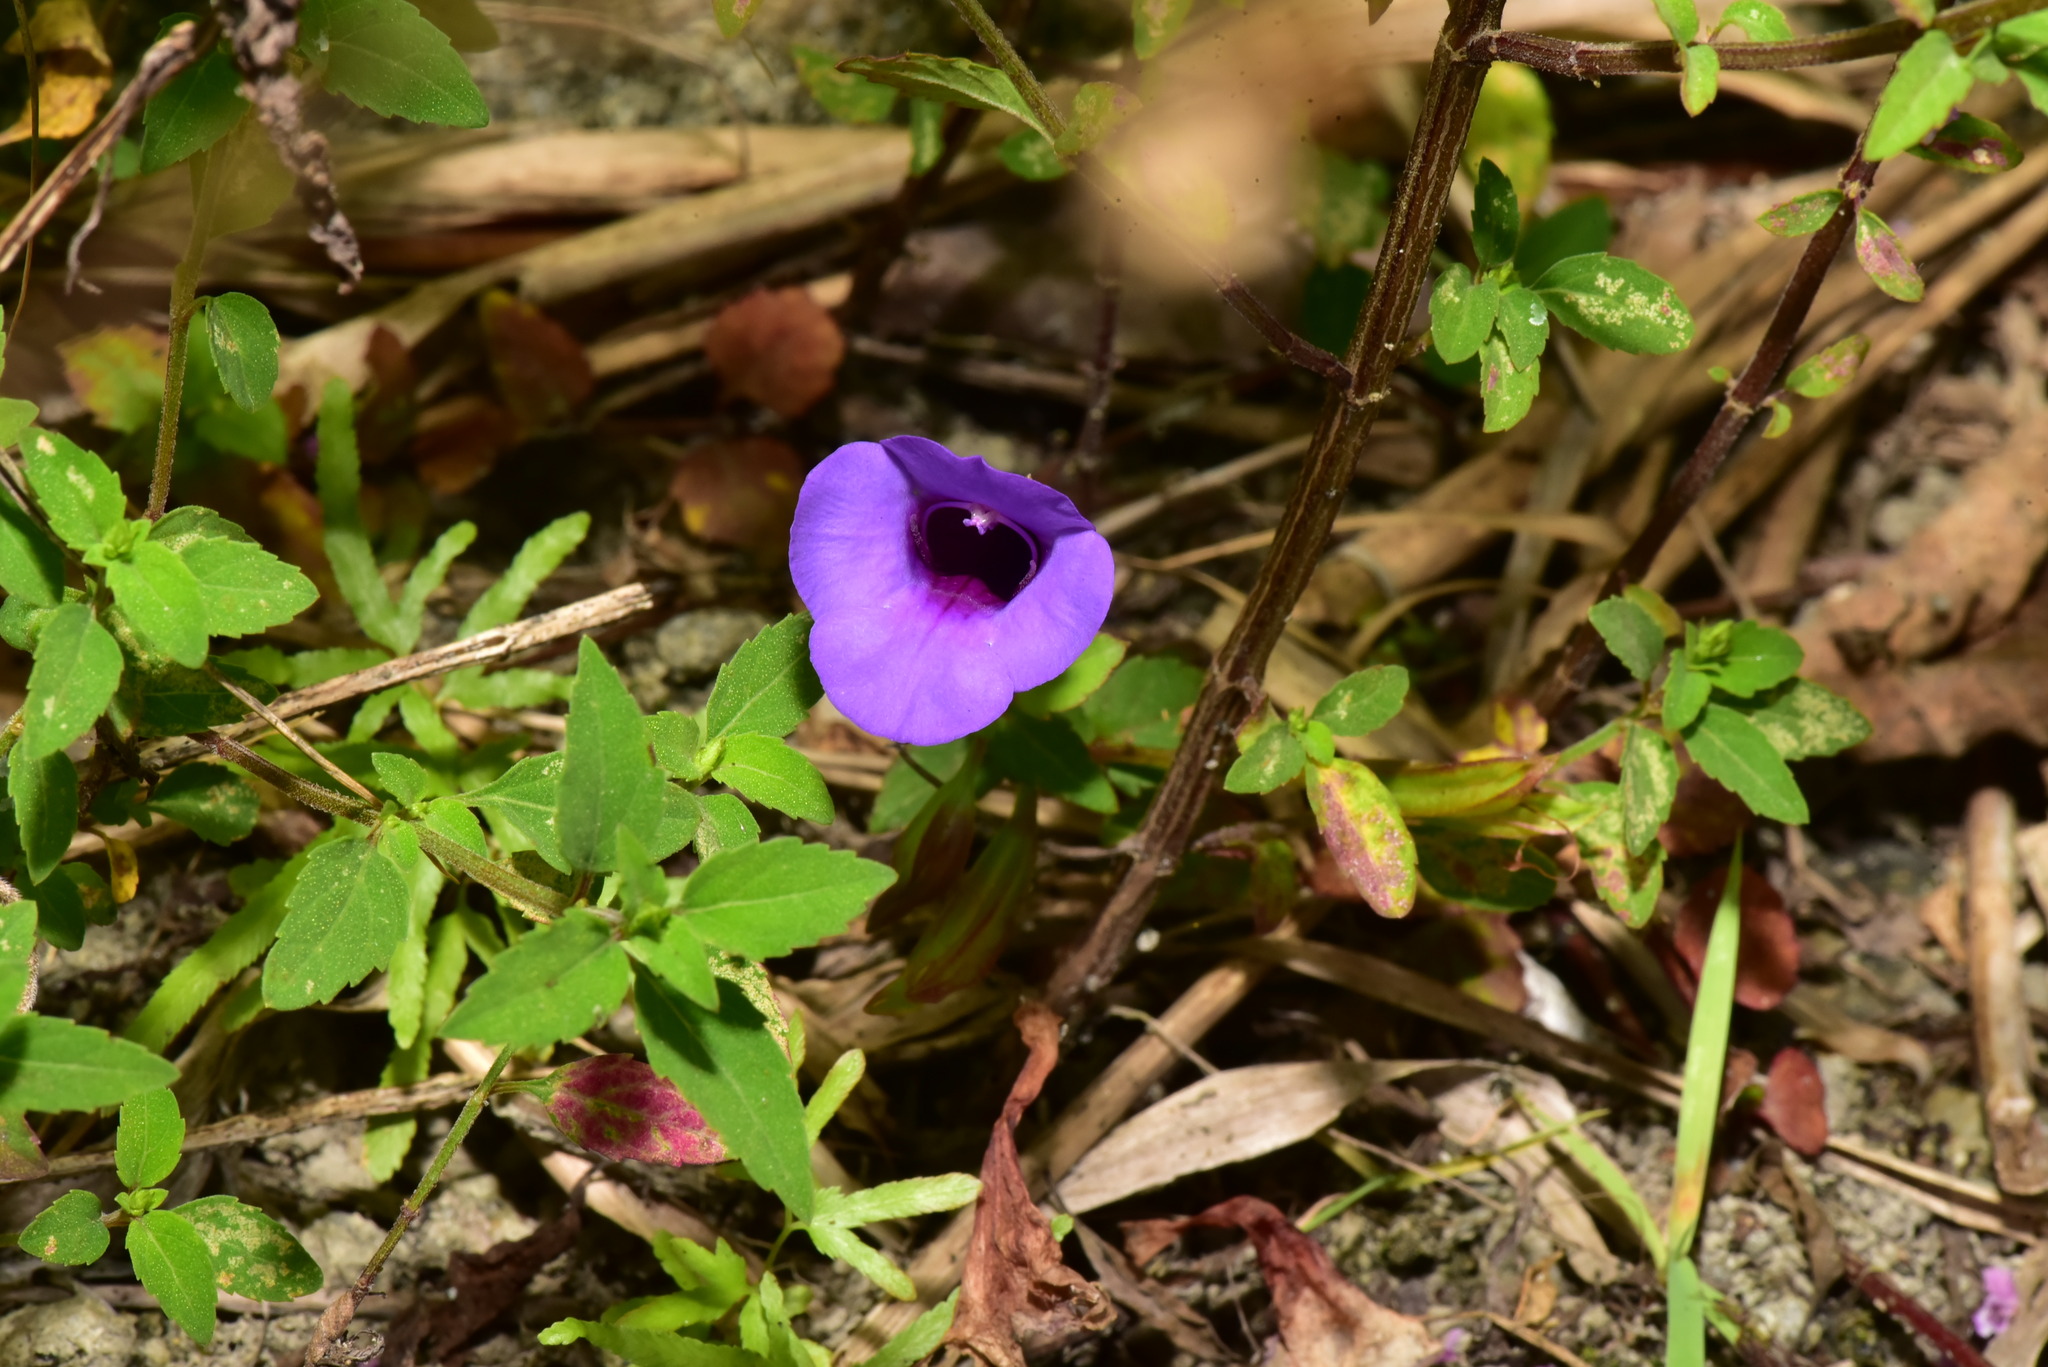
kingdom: Plantae
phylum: Tracheophyta
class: Magnoliopsida
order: Lamiales
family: Linderniaceae
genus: Torenia
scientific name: Torenia concolor
